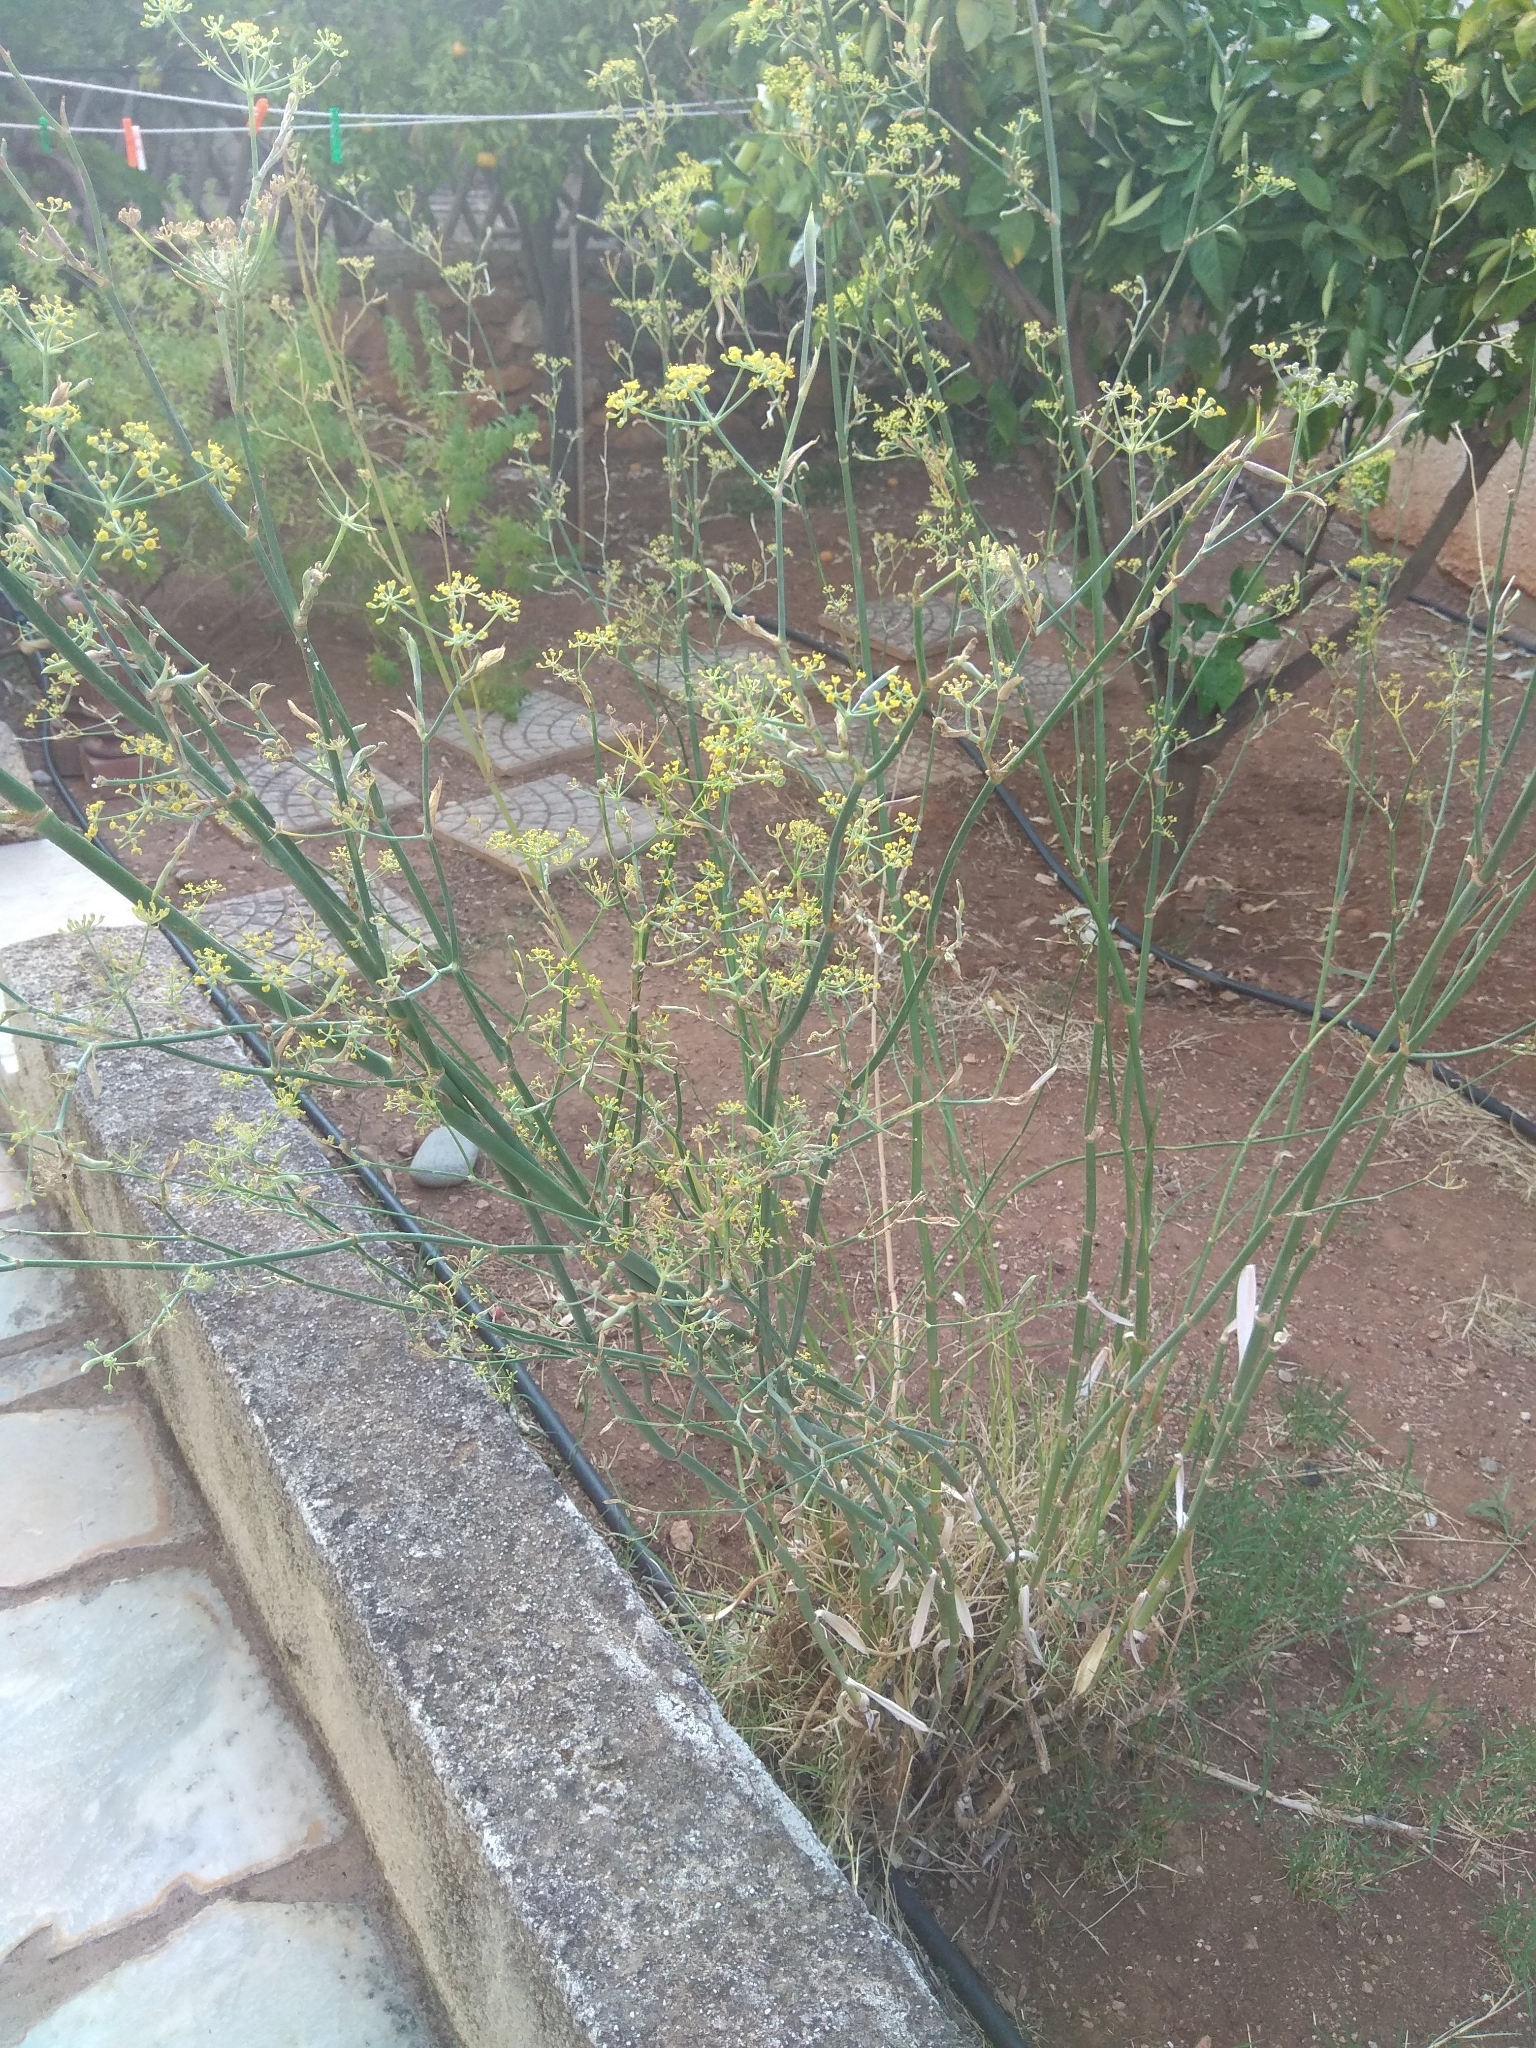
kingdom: Plantae
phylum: Tracheophyta
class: Magnoliopsida
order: Apiales
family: Apiaceae
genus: Foeniculum
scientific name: Foeniculum vulgare
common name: Fennel
